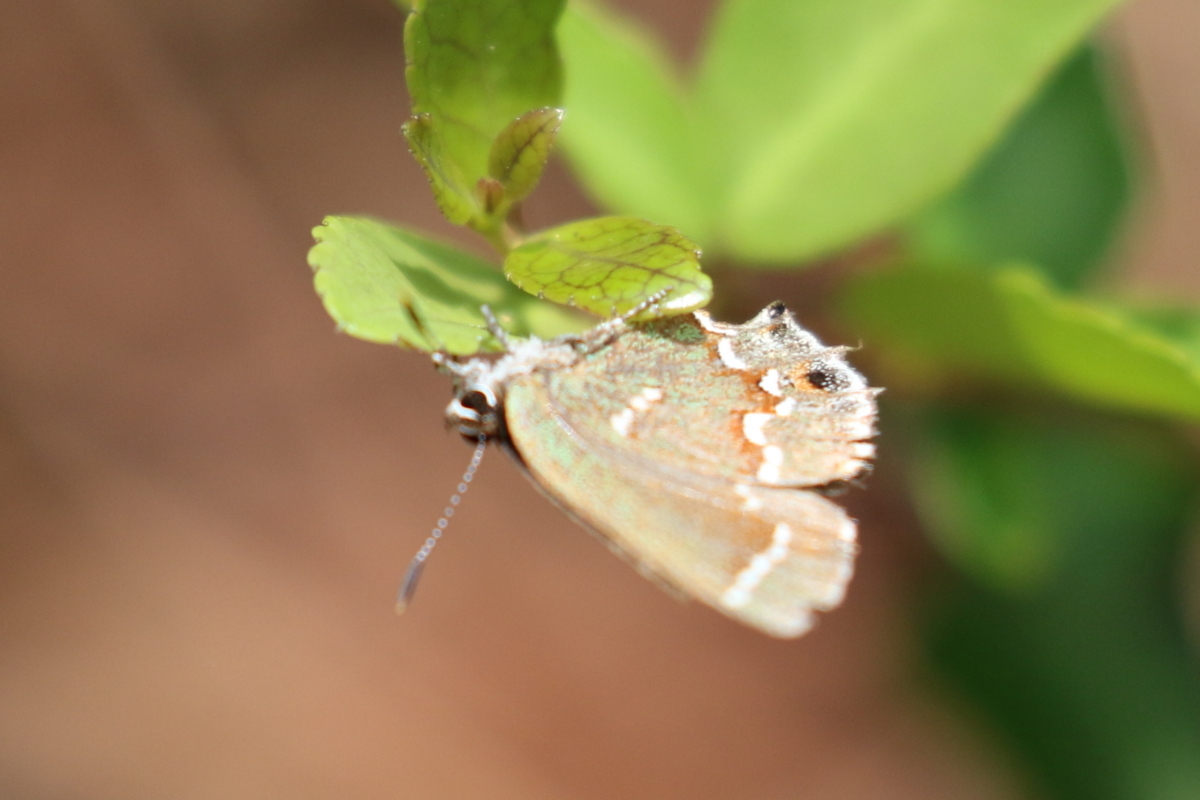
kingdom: Animalia
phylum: Arthropoda
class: Insecta
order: Lepidoptera
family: Lycaenidae
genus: Mitoura
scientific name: Mitoura gryneus
